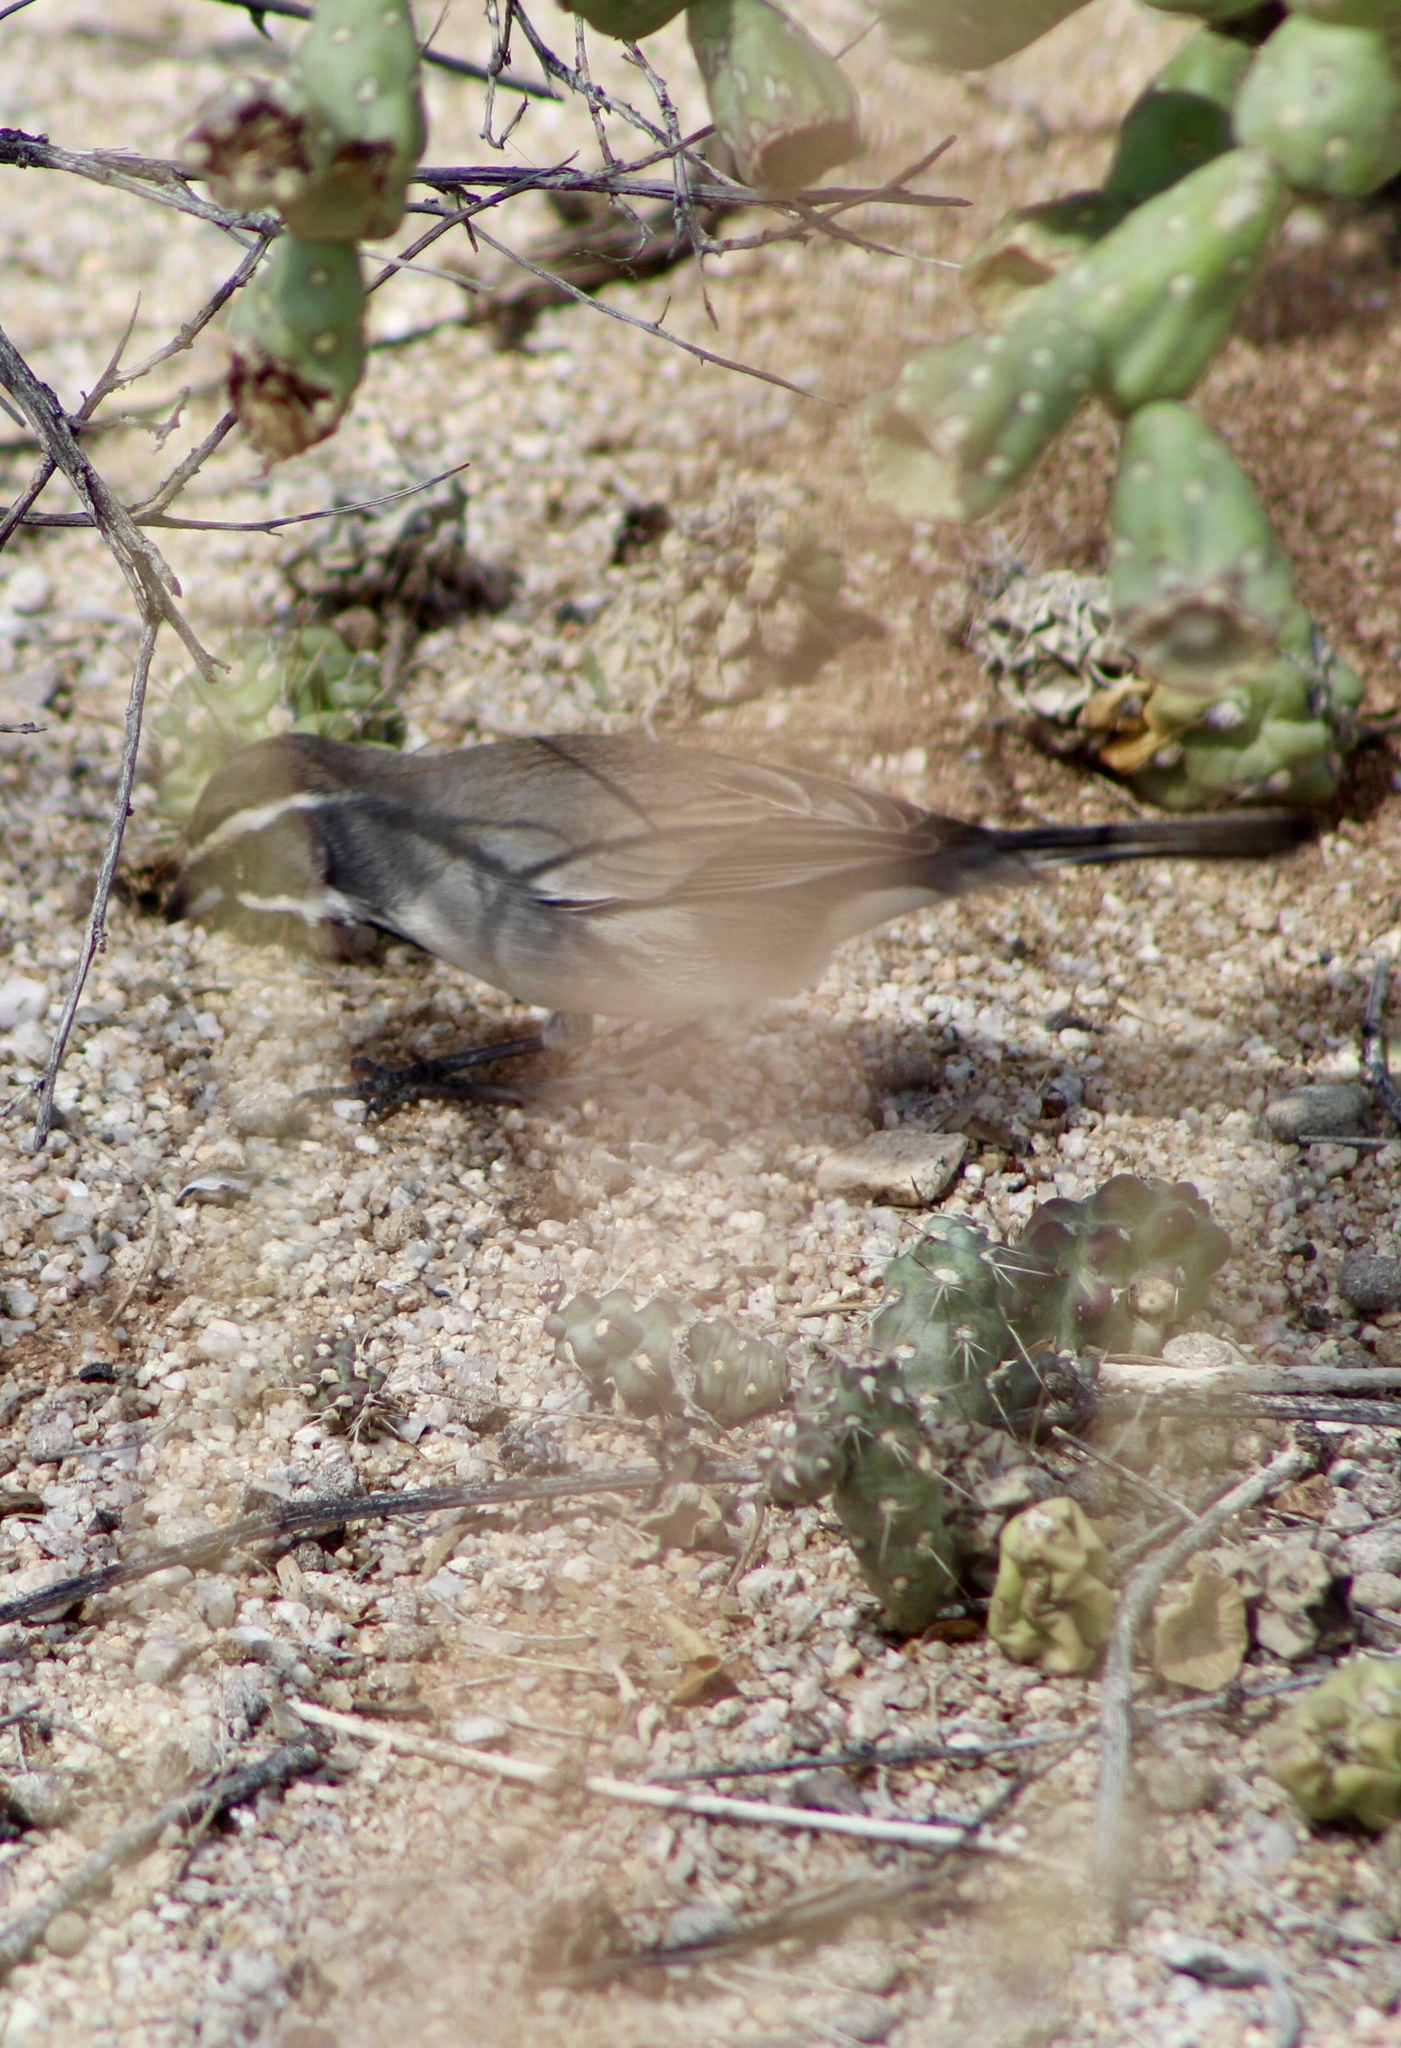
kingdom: Animalia
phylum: Chordata
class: Aves
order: Passeriformes
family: Passerellidae
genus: Amphispiza
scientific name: Amphispiza bilineata
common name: Black-throated sparrow
